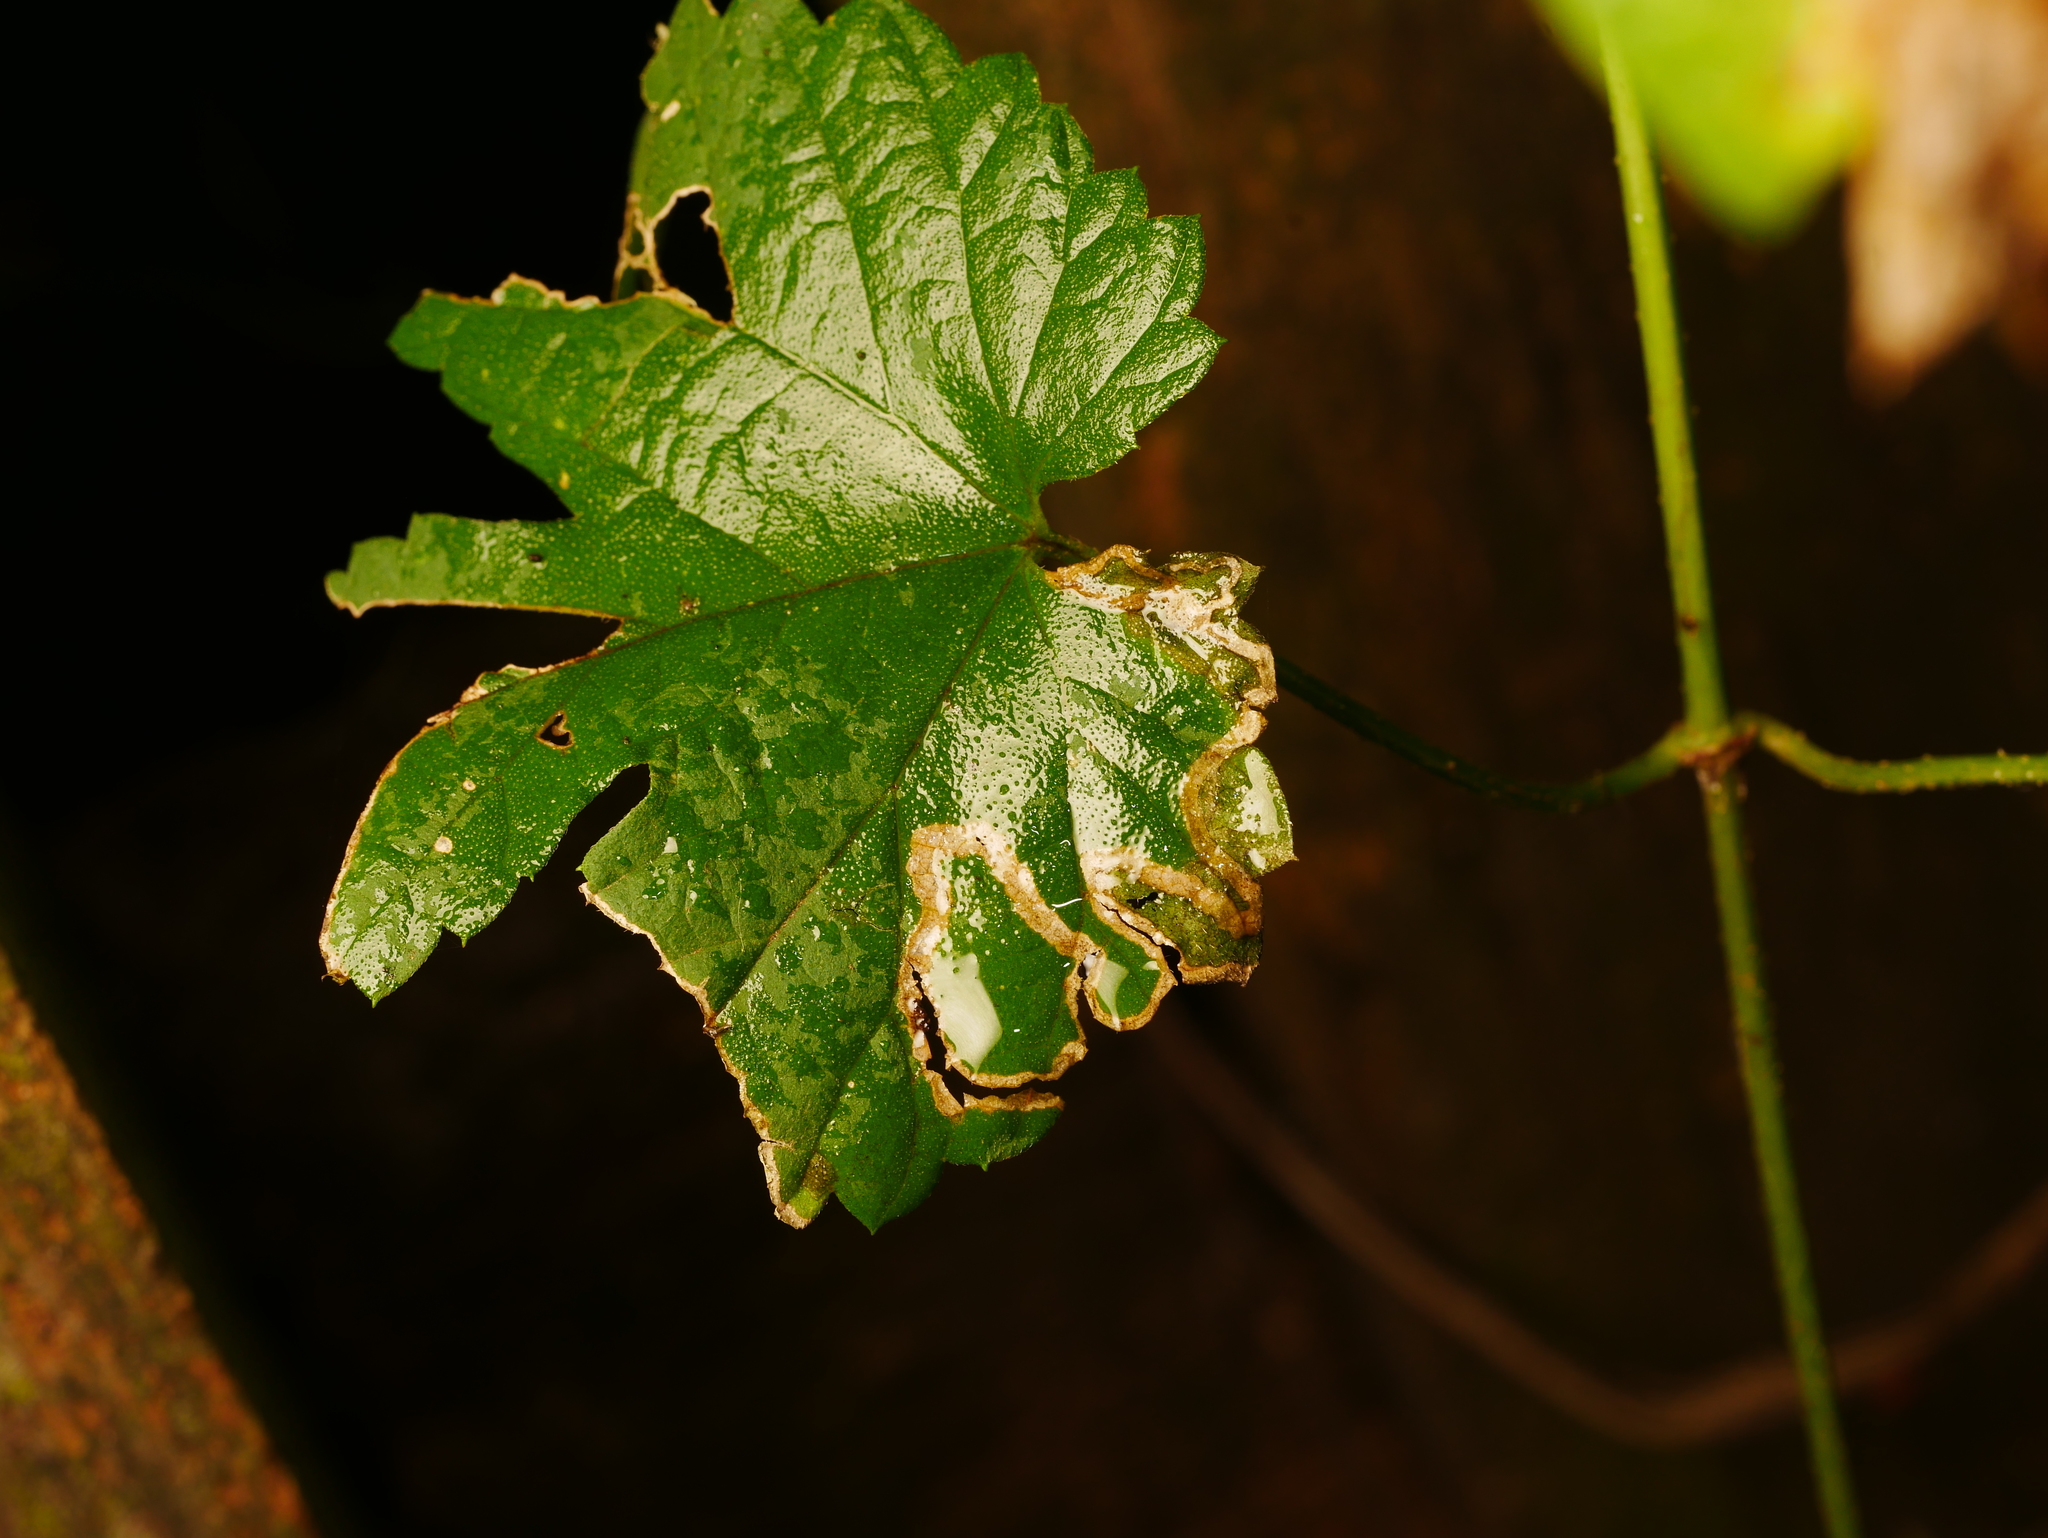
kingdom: Plantae
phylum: Tracheophyta
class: Magnoliopsida
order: Rosales
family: Cannabaceae
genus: Humulus
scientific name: Humulus lupulus
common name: Hop
